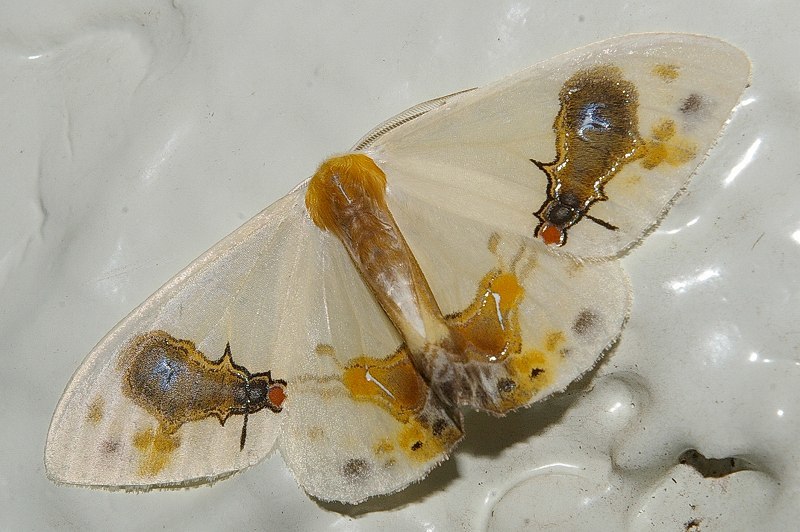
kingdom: Animalia
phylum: Arthropoda
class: Insecta
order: Lepidoptera
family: Drepanidae
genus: Macrocilix
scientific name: Macrocilix maia
